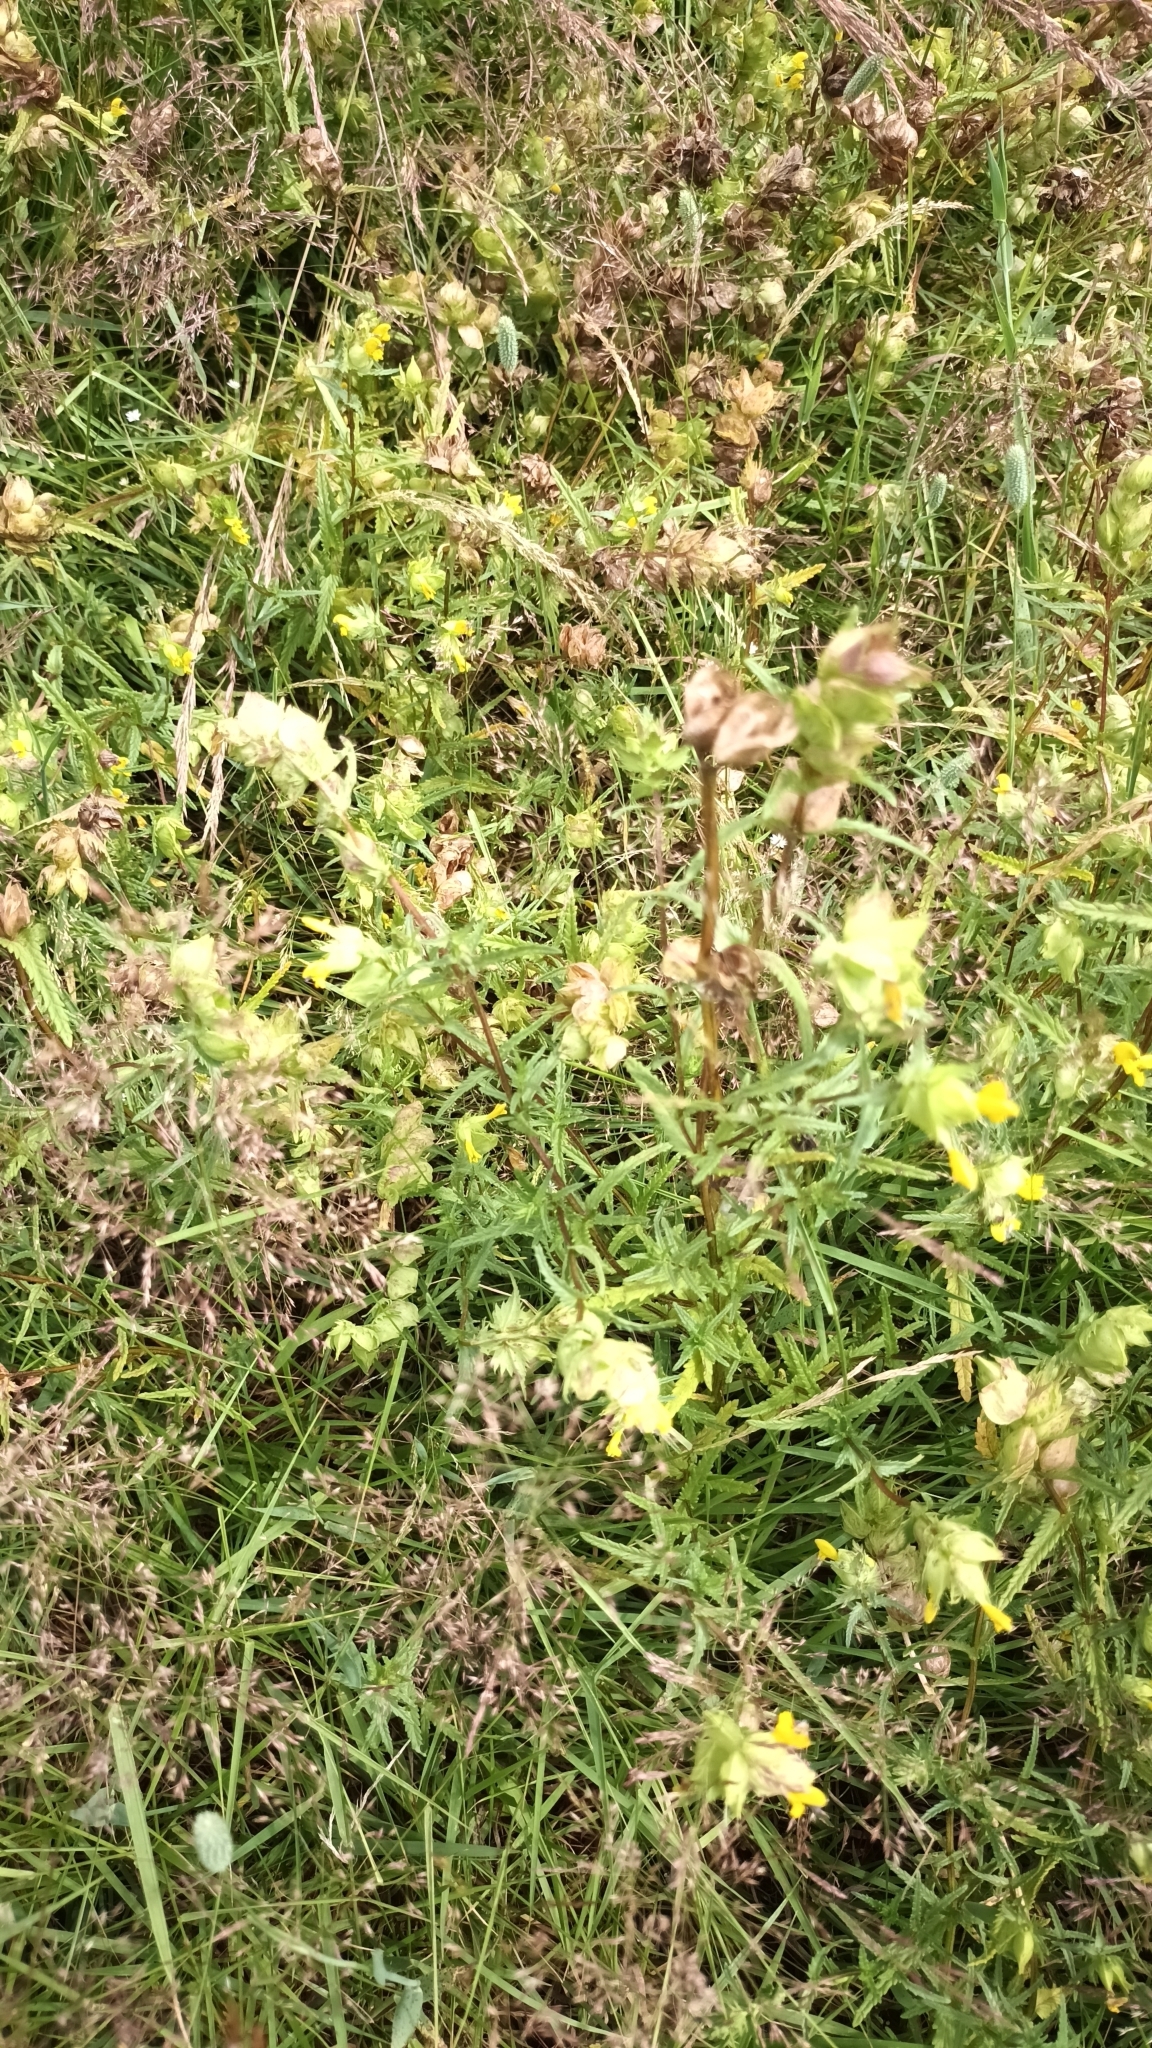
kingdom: Plantae
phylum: Tracheophyta
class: Magnoliopsida
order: Lamiales
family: Orobanchaceae
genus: Rhinanthus
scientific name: Rhinanthus minor
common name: Yellow-rattle
